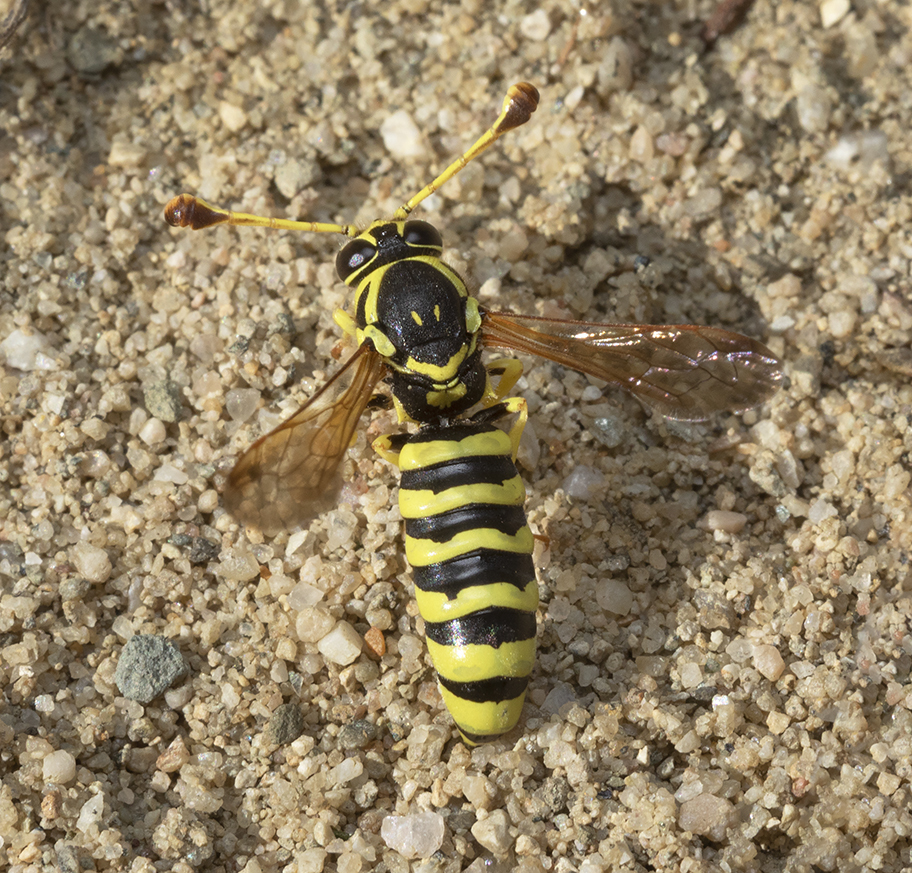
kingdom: Animalia
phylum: Arthropoda
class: Insecta
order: Hymenoptera
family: Masaridae
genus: Pseudomasaris
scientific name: Pseudomasaris edwardsi
